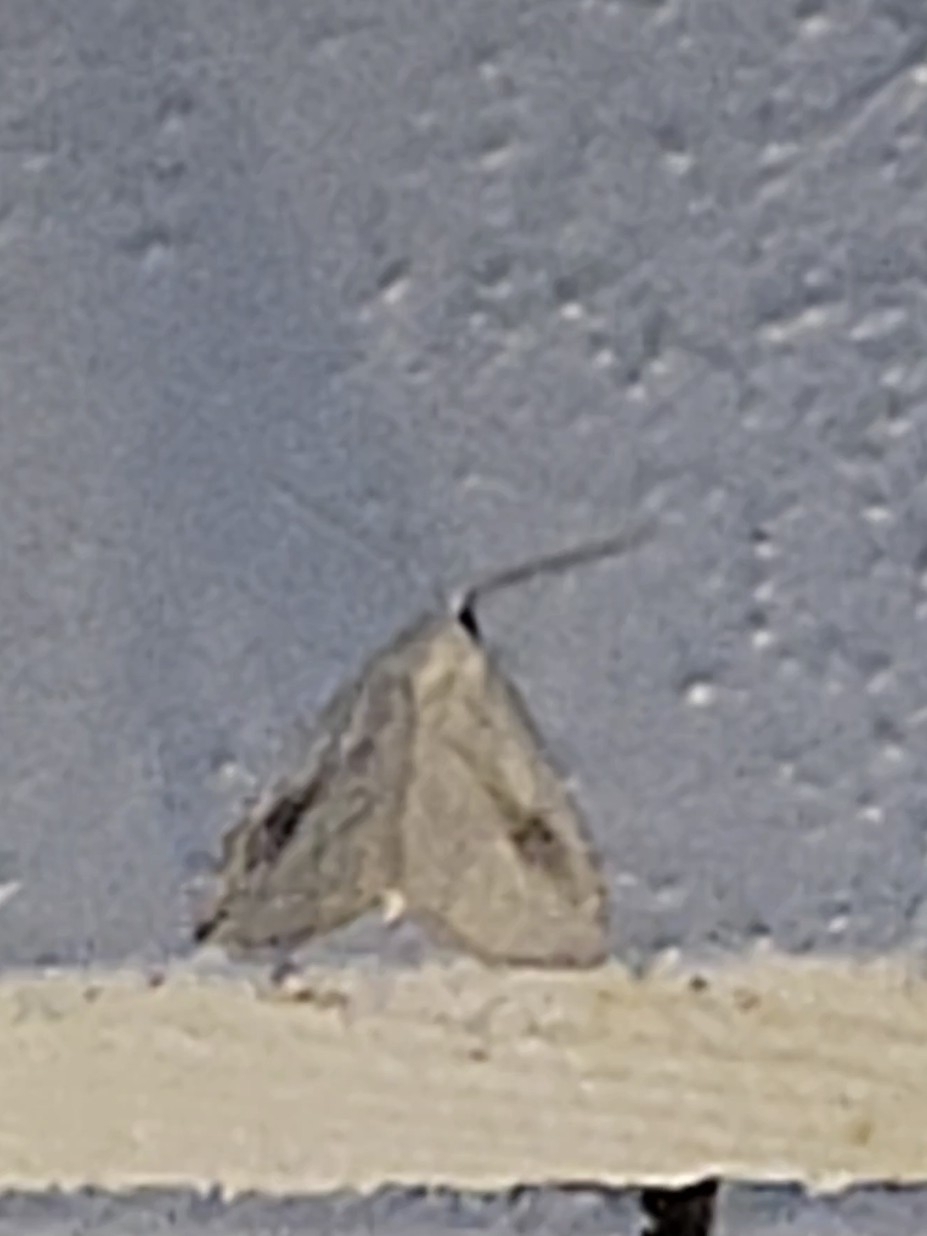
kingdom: Animalia
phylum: Arthropoda
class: Insecta
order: Lepidoptera
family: Erebidae
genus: Rivula
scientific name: Rivula propinqualis
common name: Spotted grass moth
